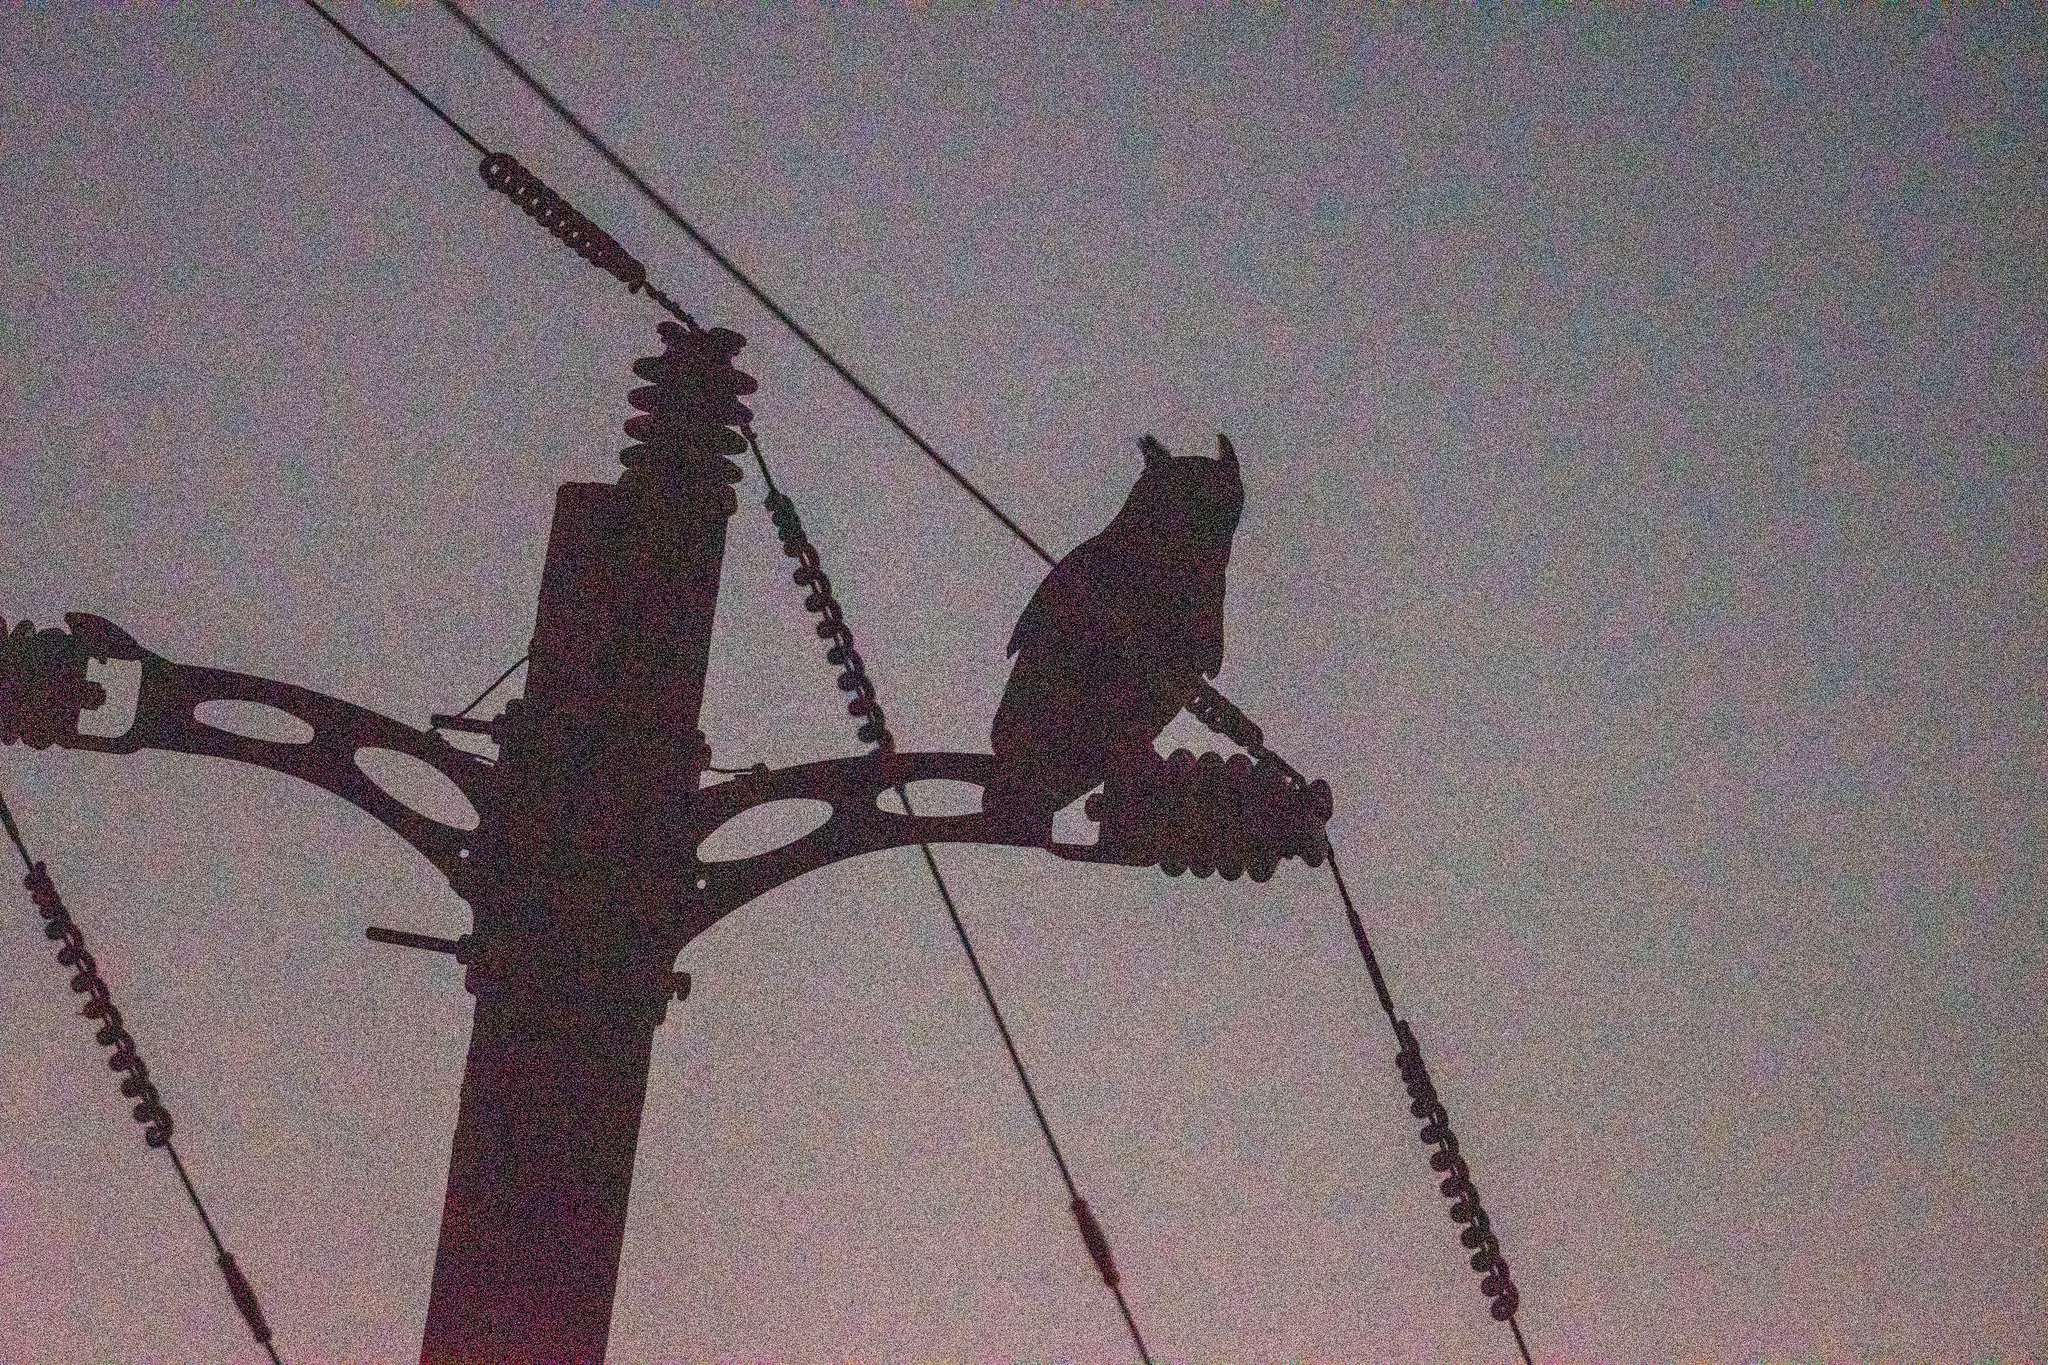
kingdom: Animalia
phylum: Chordata
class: Aves
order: Strigiformes
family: Strigidae
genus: Bubo
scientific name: Bubo virginianus
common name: Great horned owl
